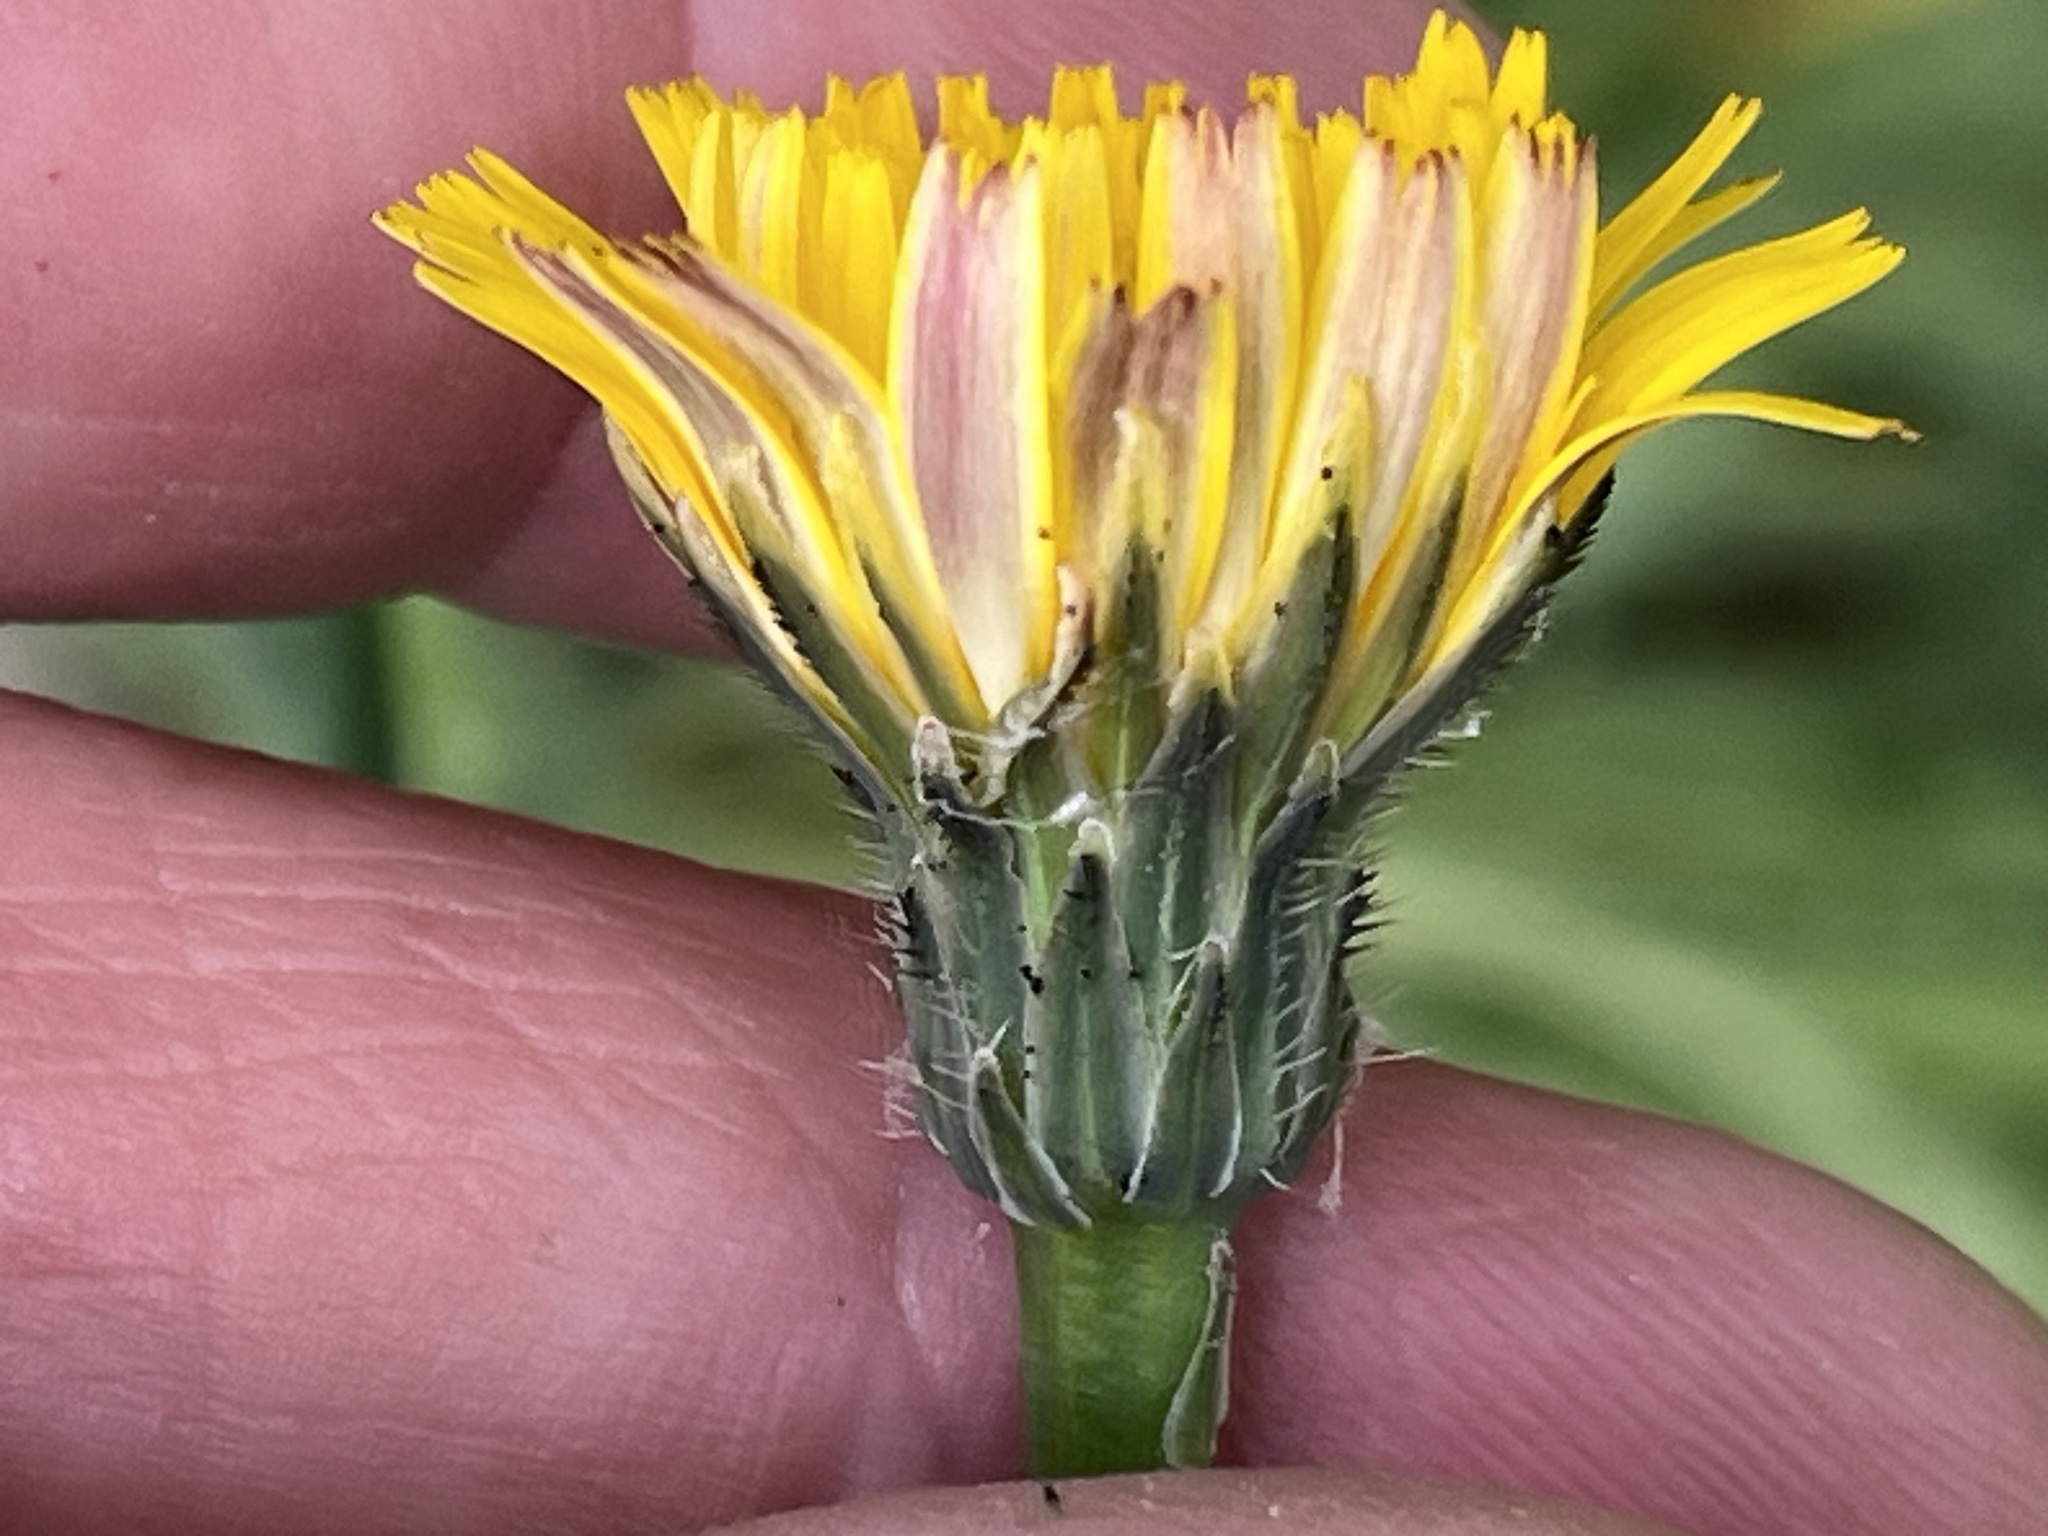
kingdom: Plantae
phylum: Tracheophyta
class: Magnoliopsida
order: Asterales
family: Asteraceae
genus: Hypochaeris
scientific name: Hypochaeris radicata
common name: Flatweed
